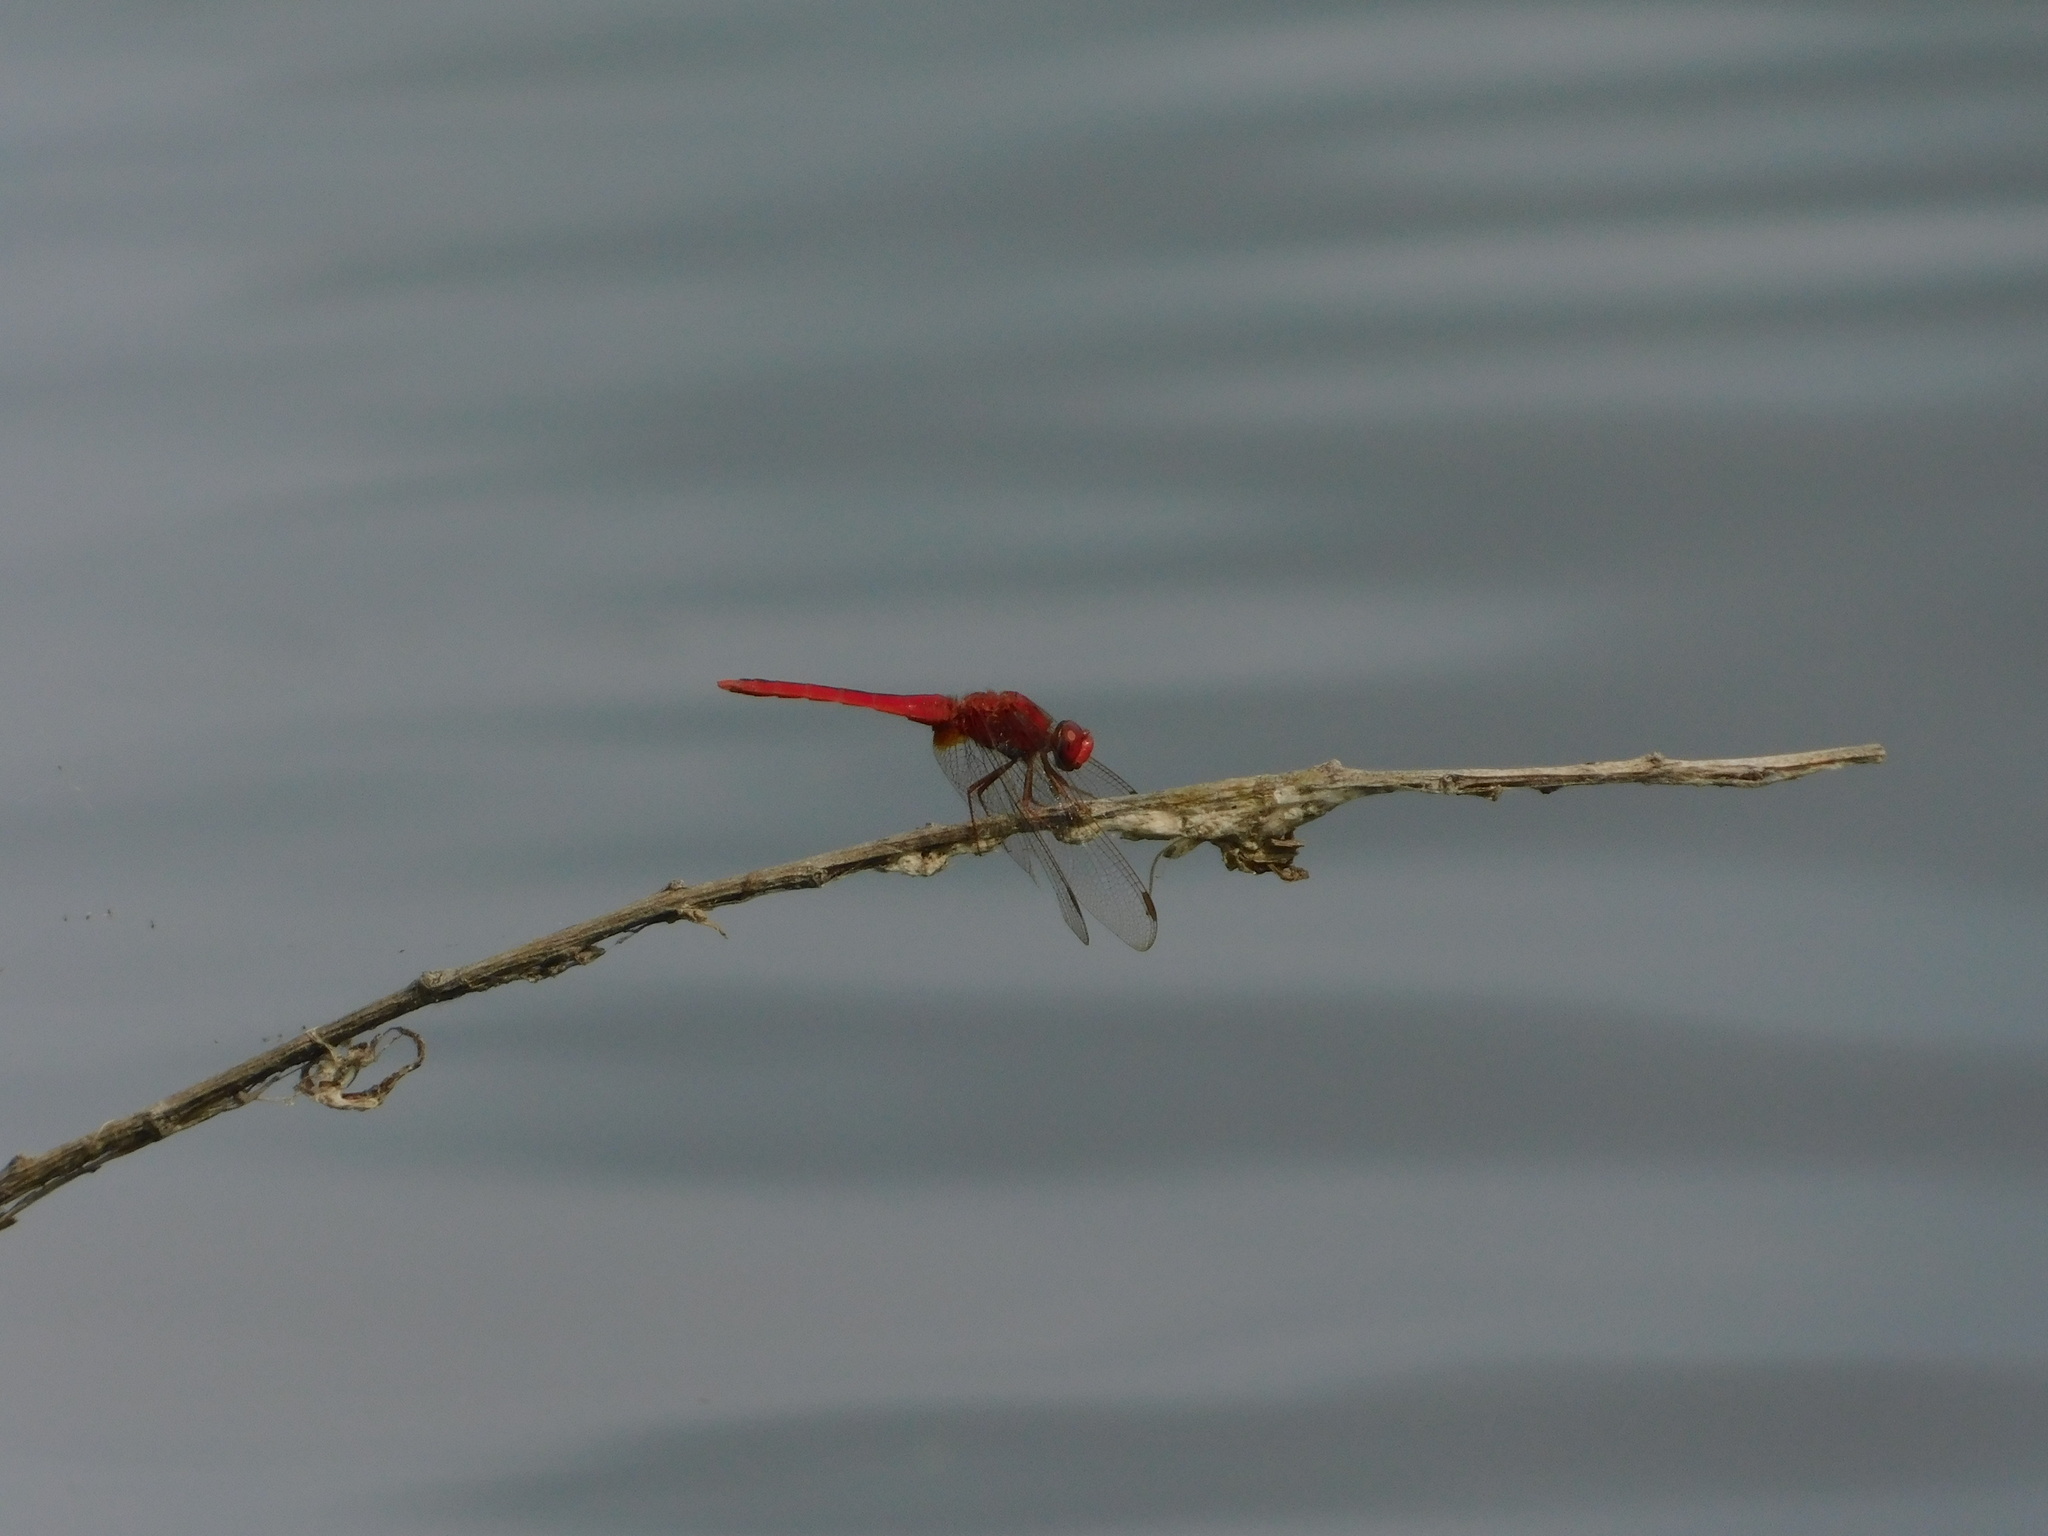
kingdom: Animalia
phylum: Arthropoda
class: Insecta
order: Odonata
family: Libellulidae
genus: Crocothemis
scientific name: Crocothemis servilia
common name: Scarlet skimmer
